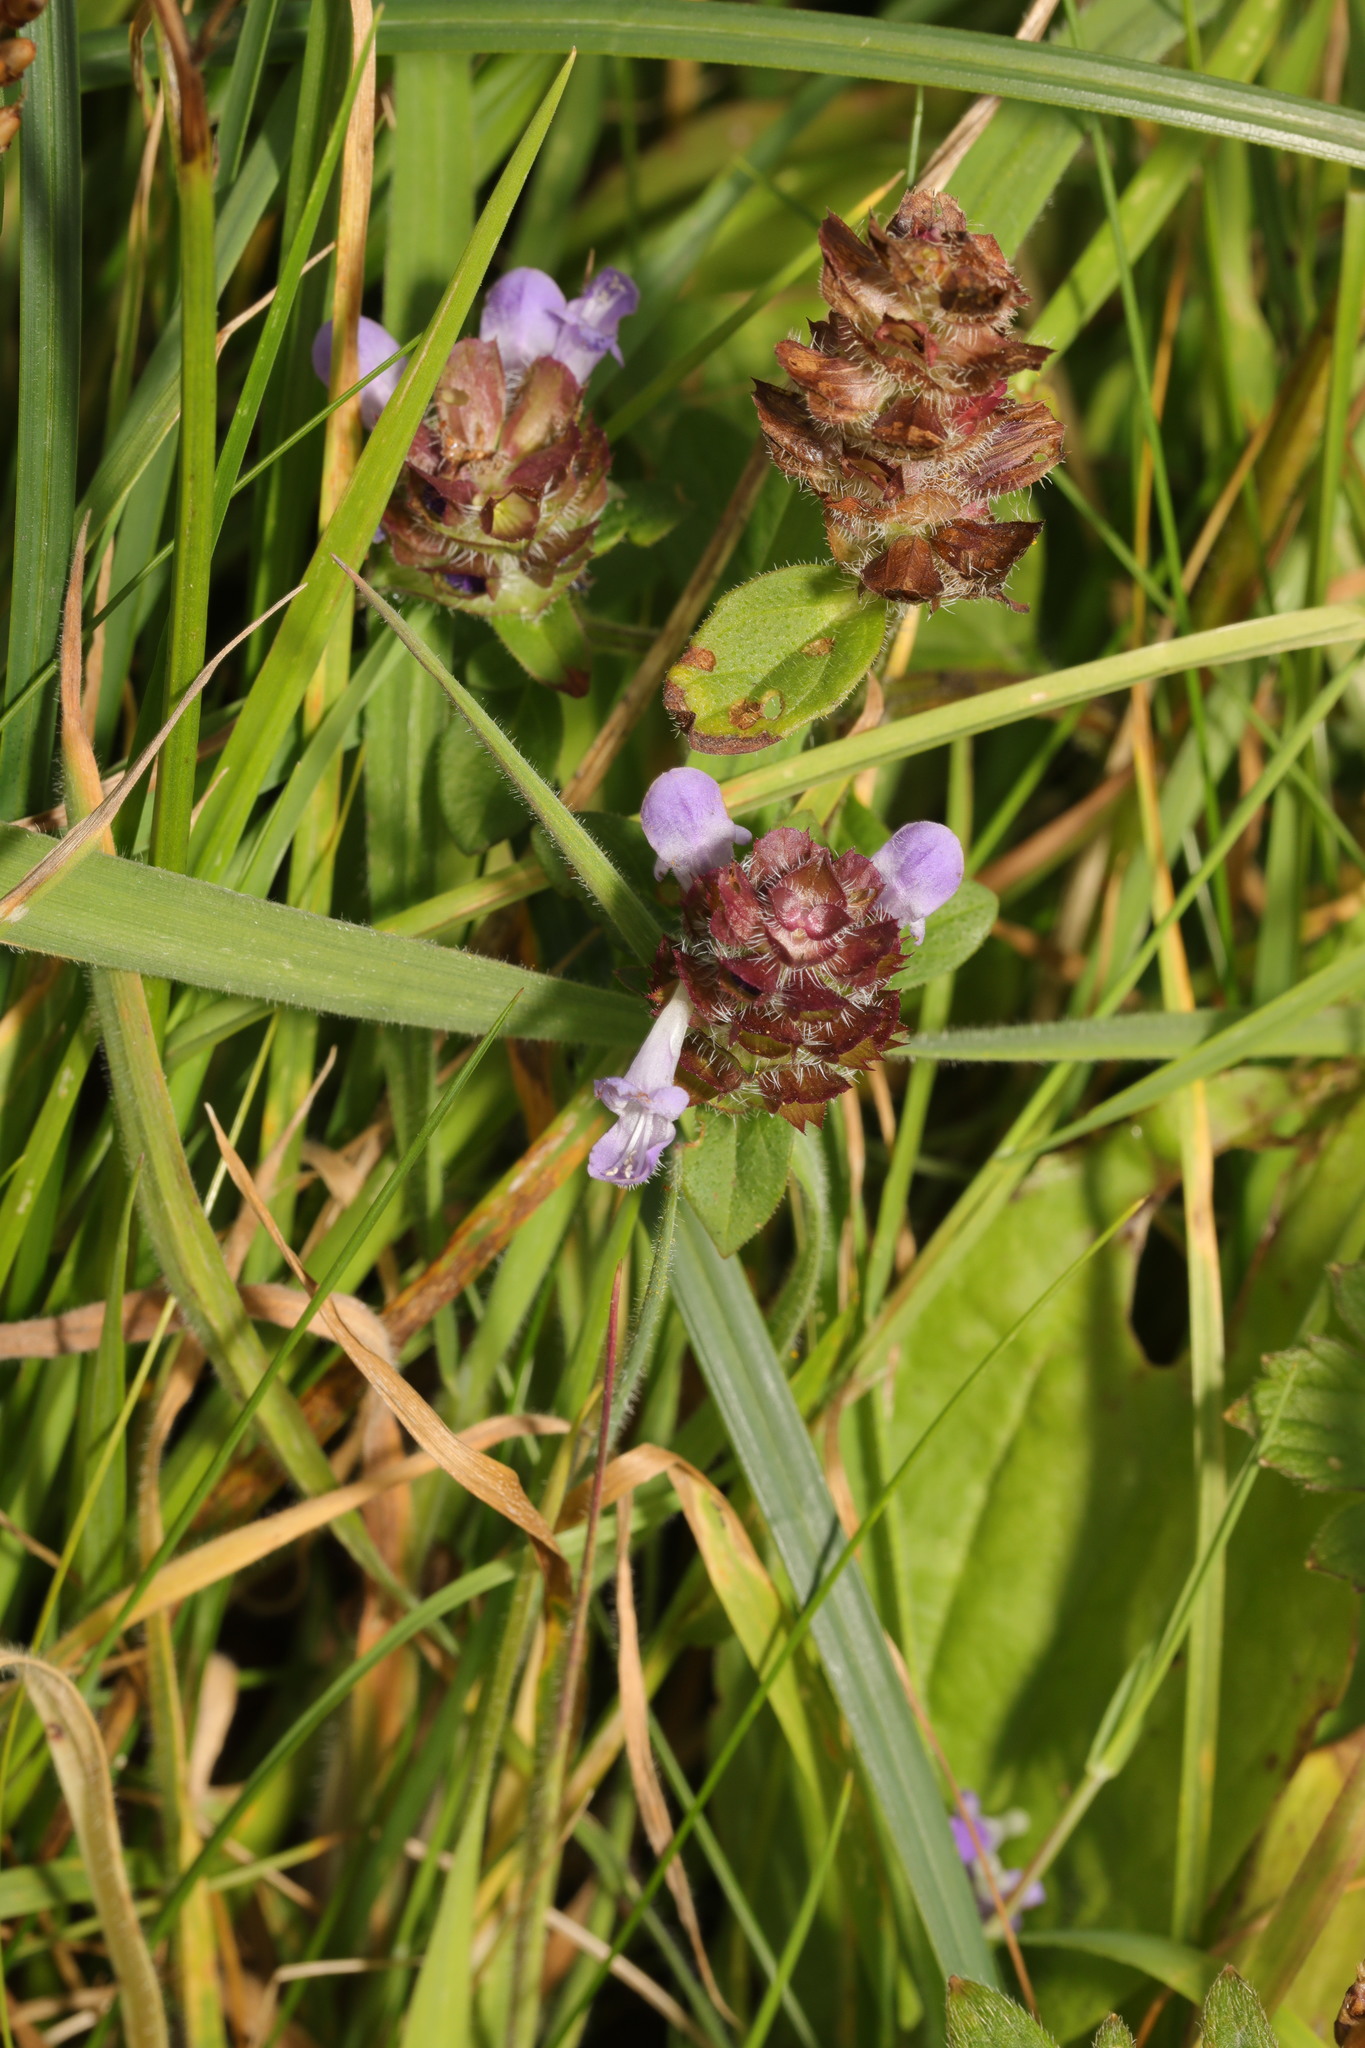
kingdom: Plantae
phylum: Tracheophyta
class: Magnoliopsida
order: Lamiales
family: Lamiaceae
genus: Prunella
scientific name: Prunella vulgaris
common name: Heal-all
